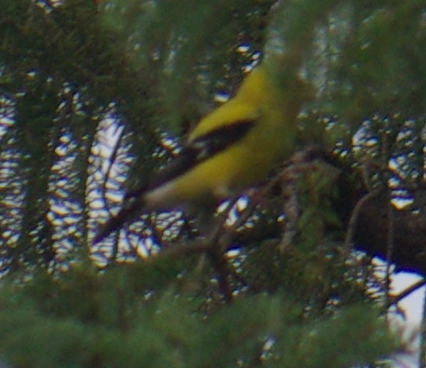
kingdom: Animalia
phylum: Chordata
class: Aves
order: Passeriformes
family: Fringillidae
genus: Spinus
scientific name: Spinus tristis
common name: American goldfinch
